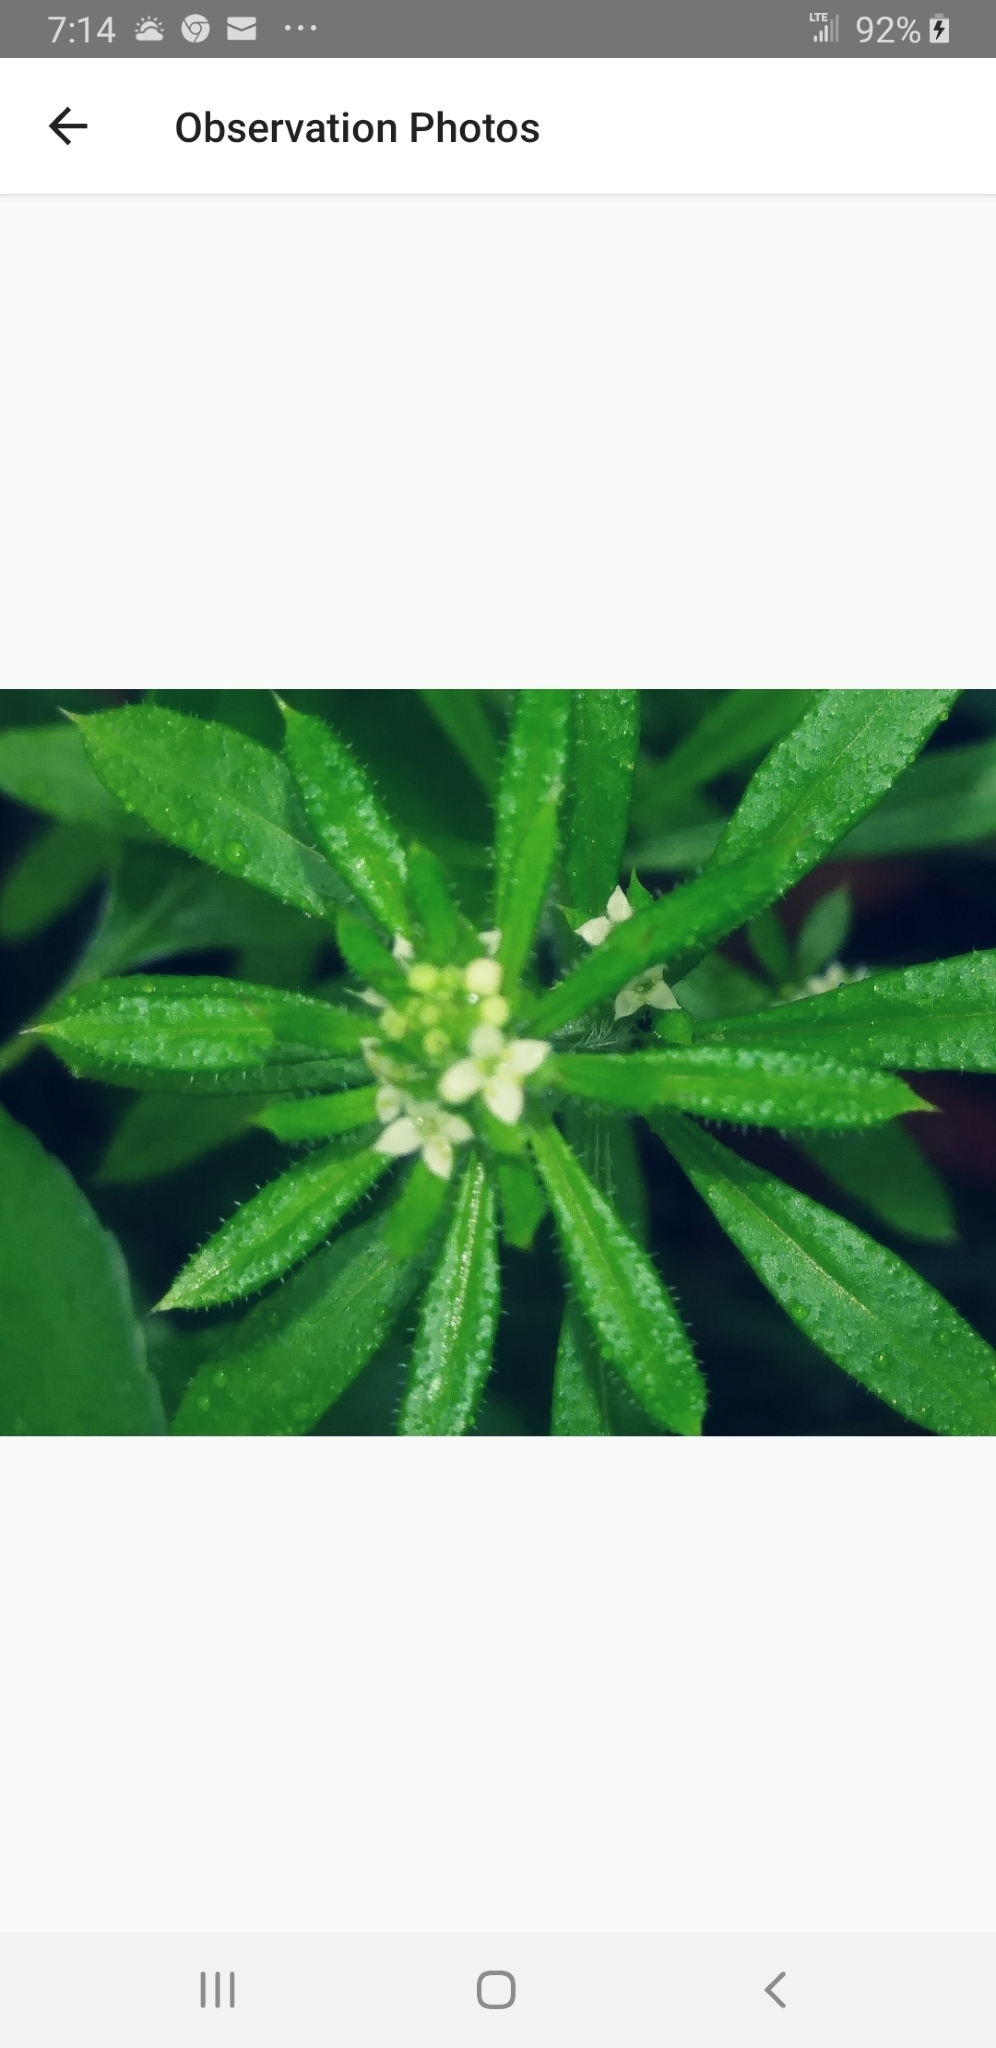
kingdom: Plantae
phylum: Tracheophyta
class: Magnoliopsida
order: Gentianales
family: Rubiaceae
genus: Galium
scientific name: Galium aparine
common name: Cleavers
